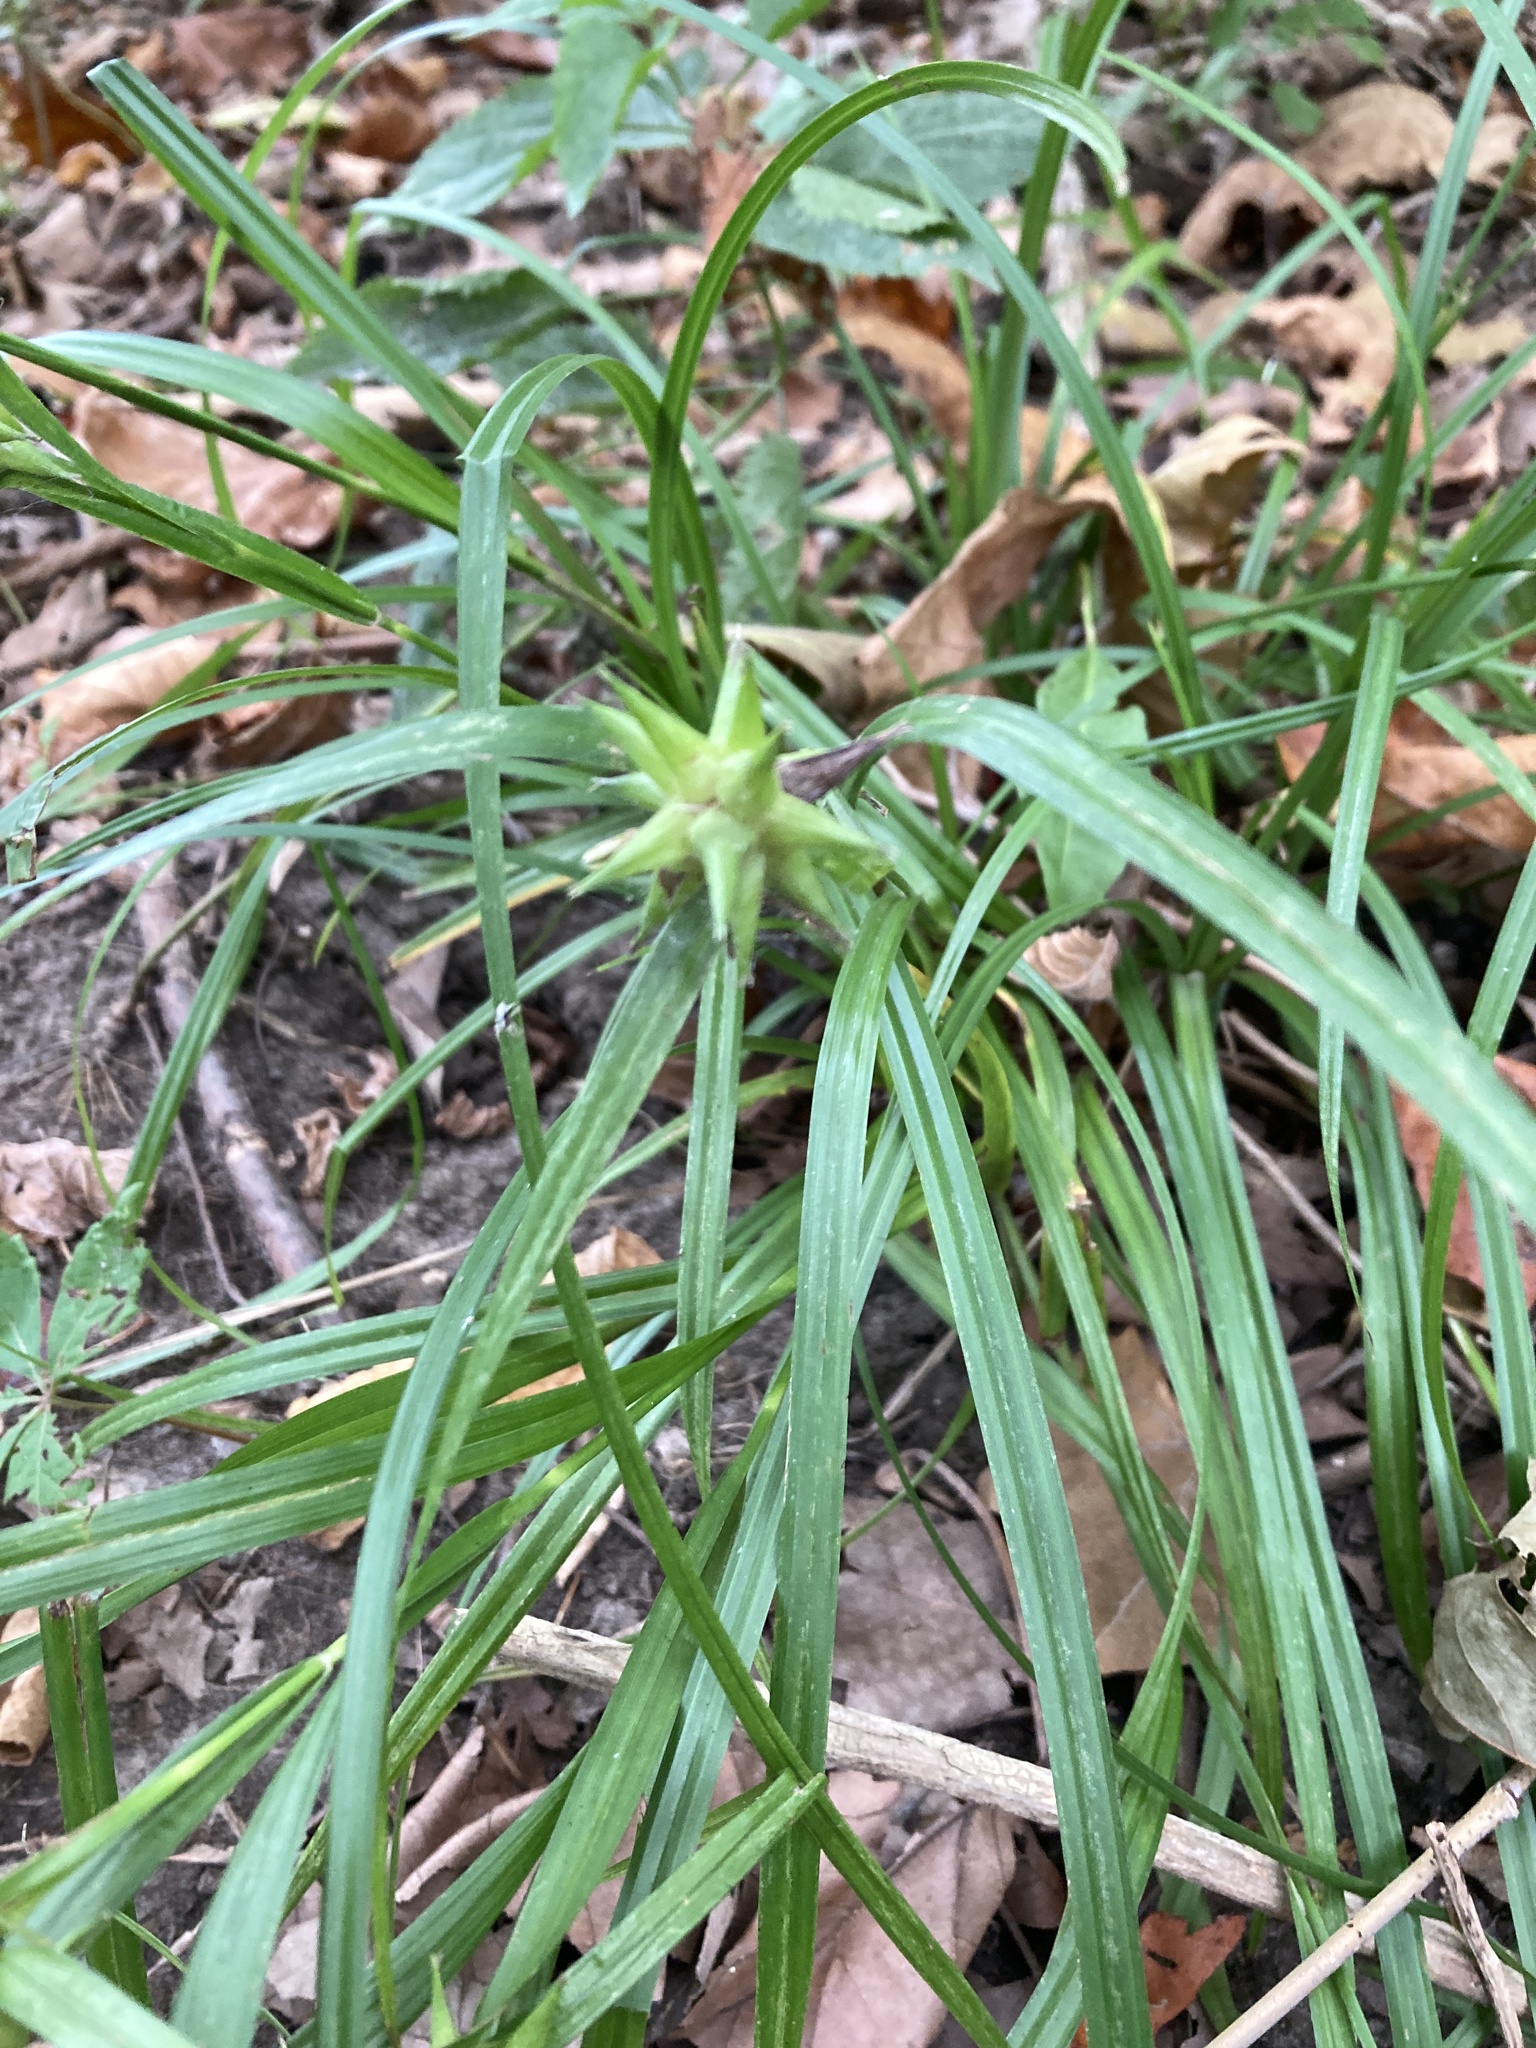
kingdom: Plantae
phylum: Tracheophyta
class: Liliopsida
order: Poales
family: Cyperaceae
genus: Carex
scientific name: Carex grayi
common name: Asa gray's sedge
